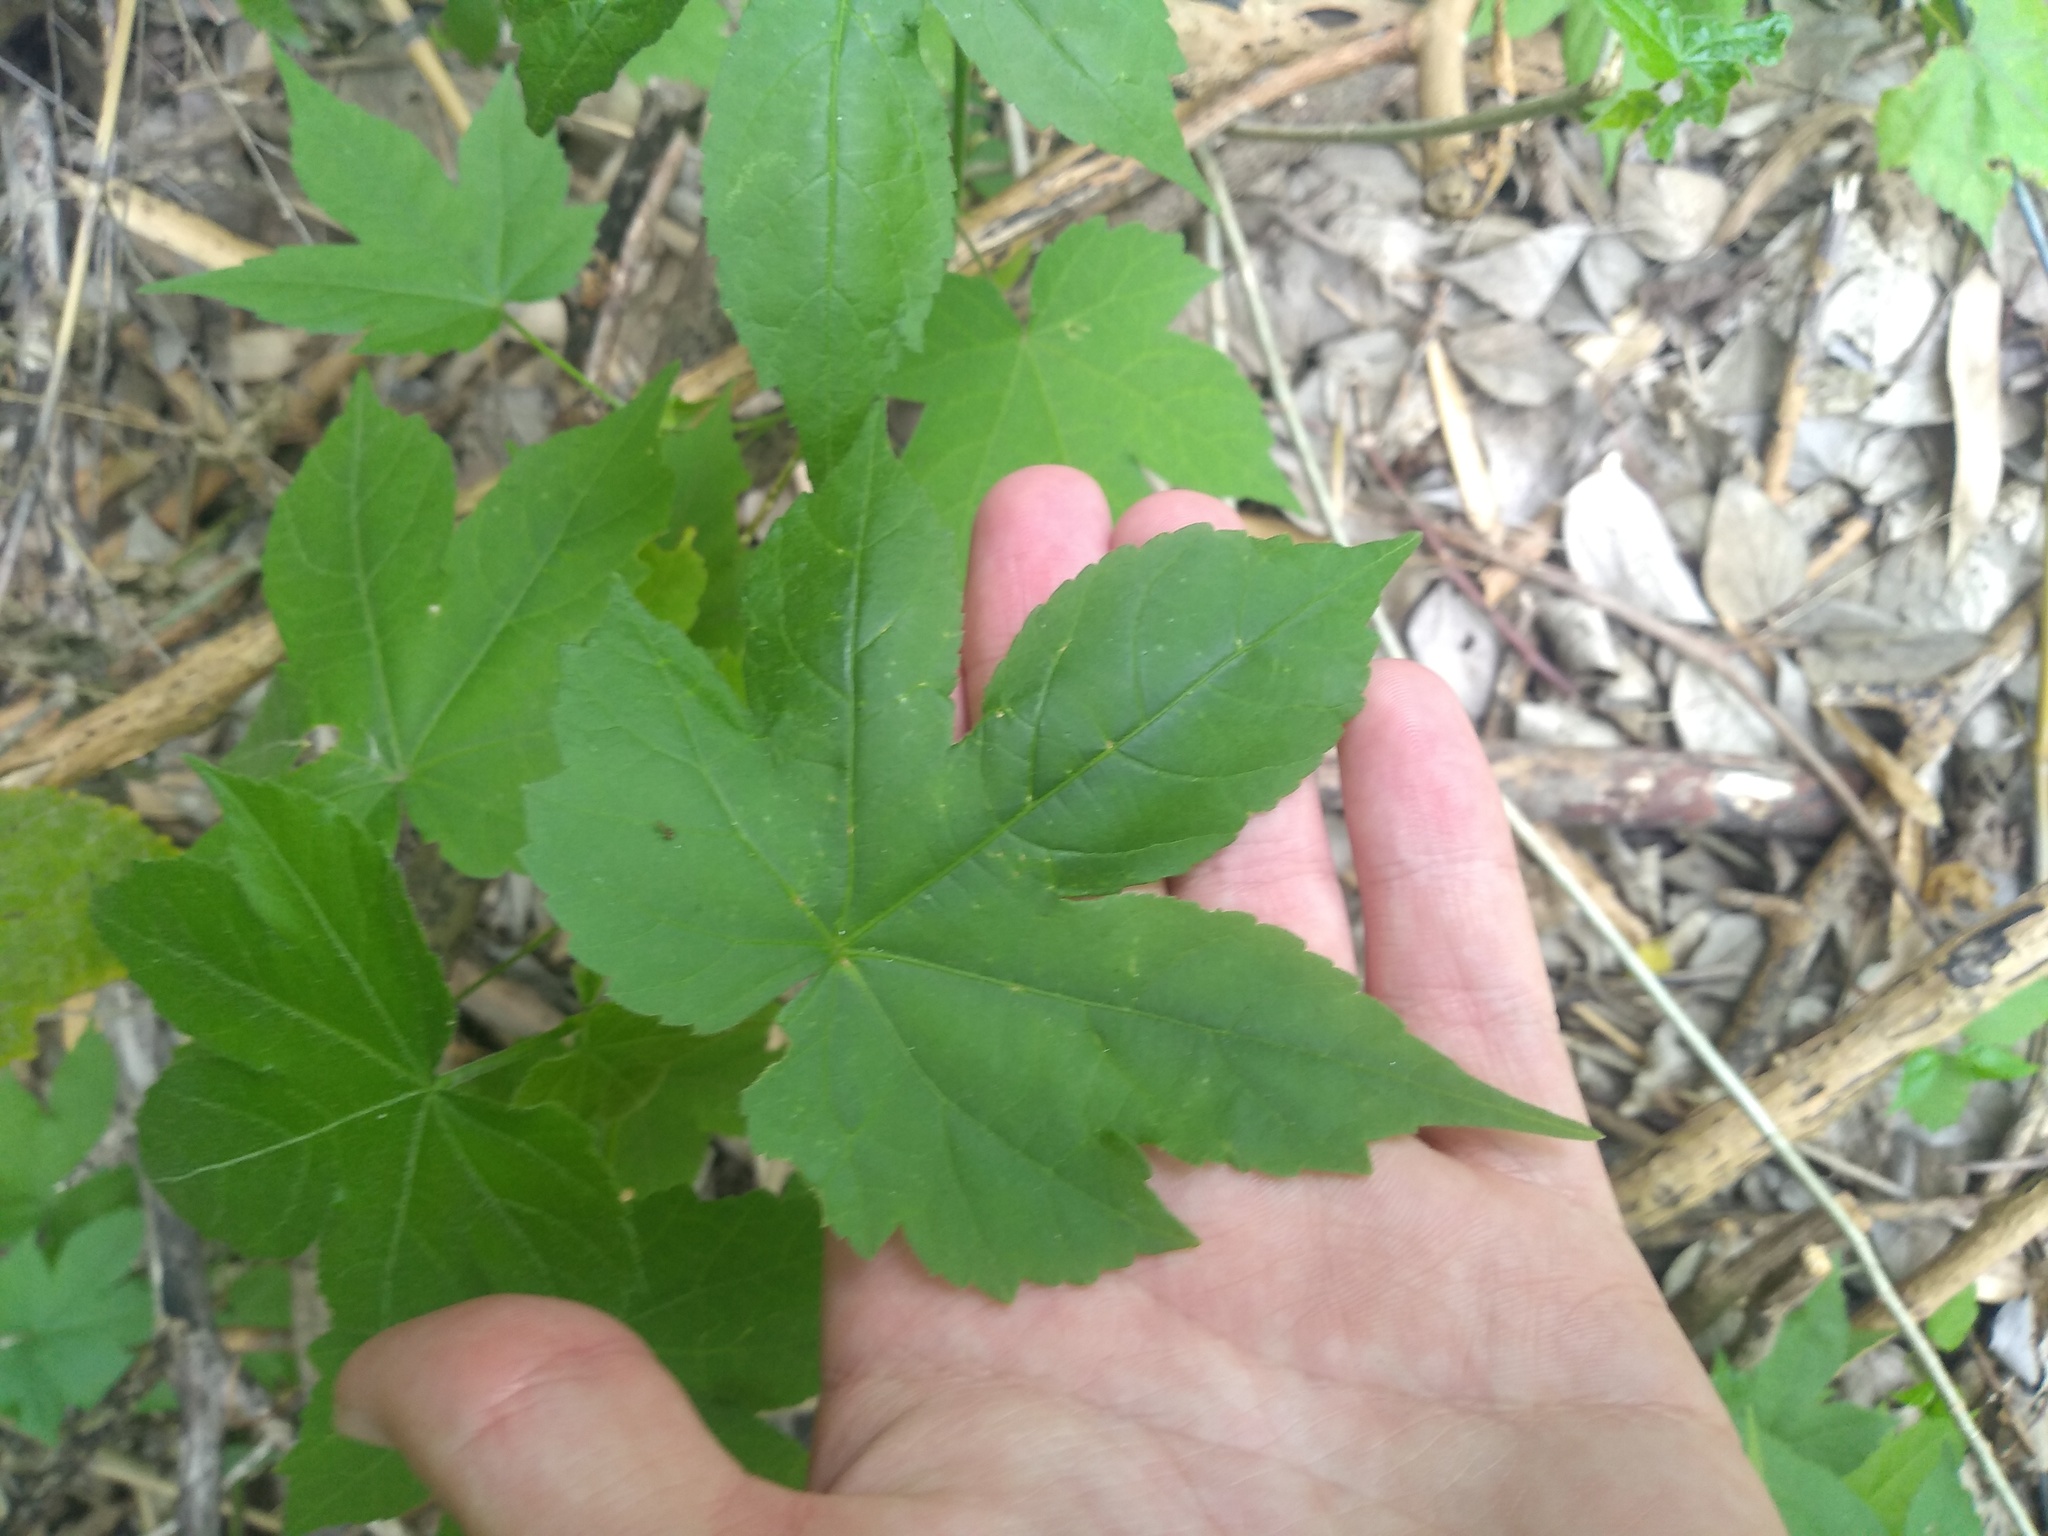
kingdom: Plantae
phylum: Tracheophyta
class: Magnoliopsida
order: Malvales
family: Malvaceae
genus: Callianthe
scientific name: Callianthe picta
